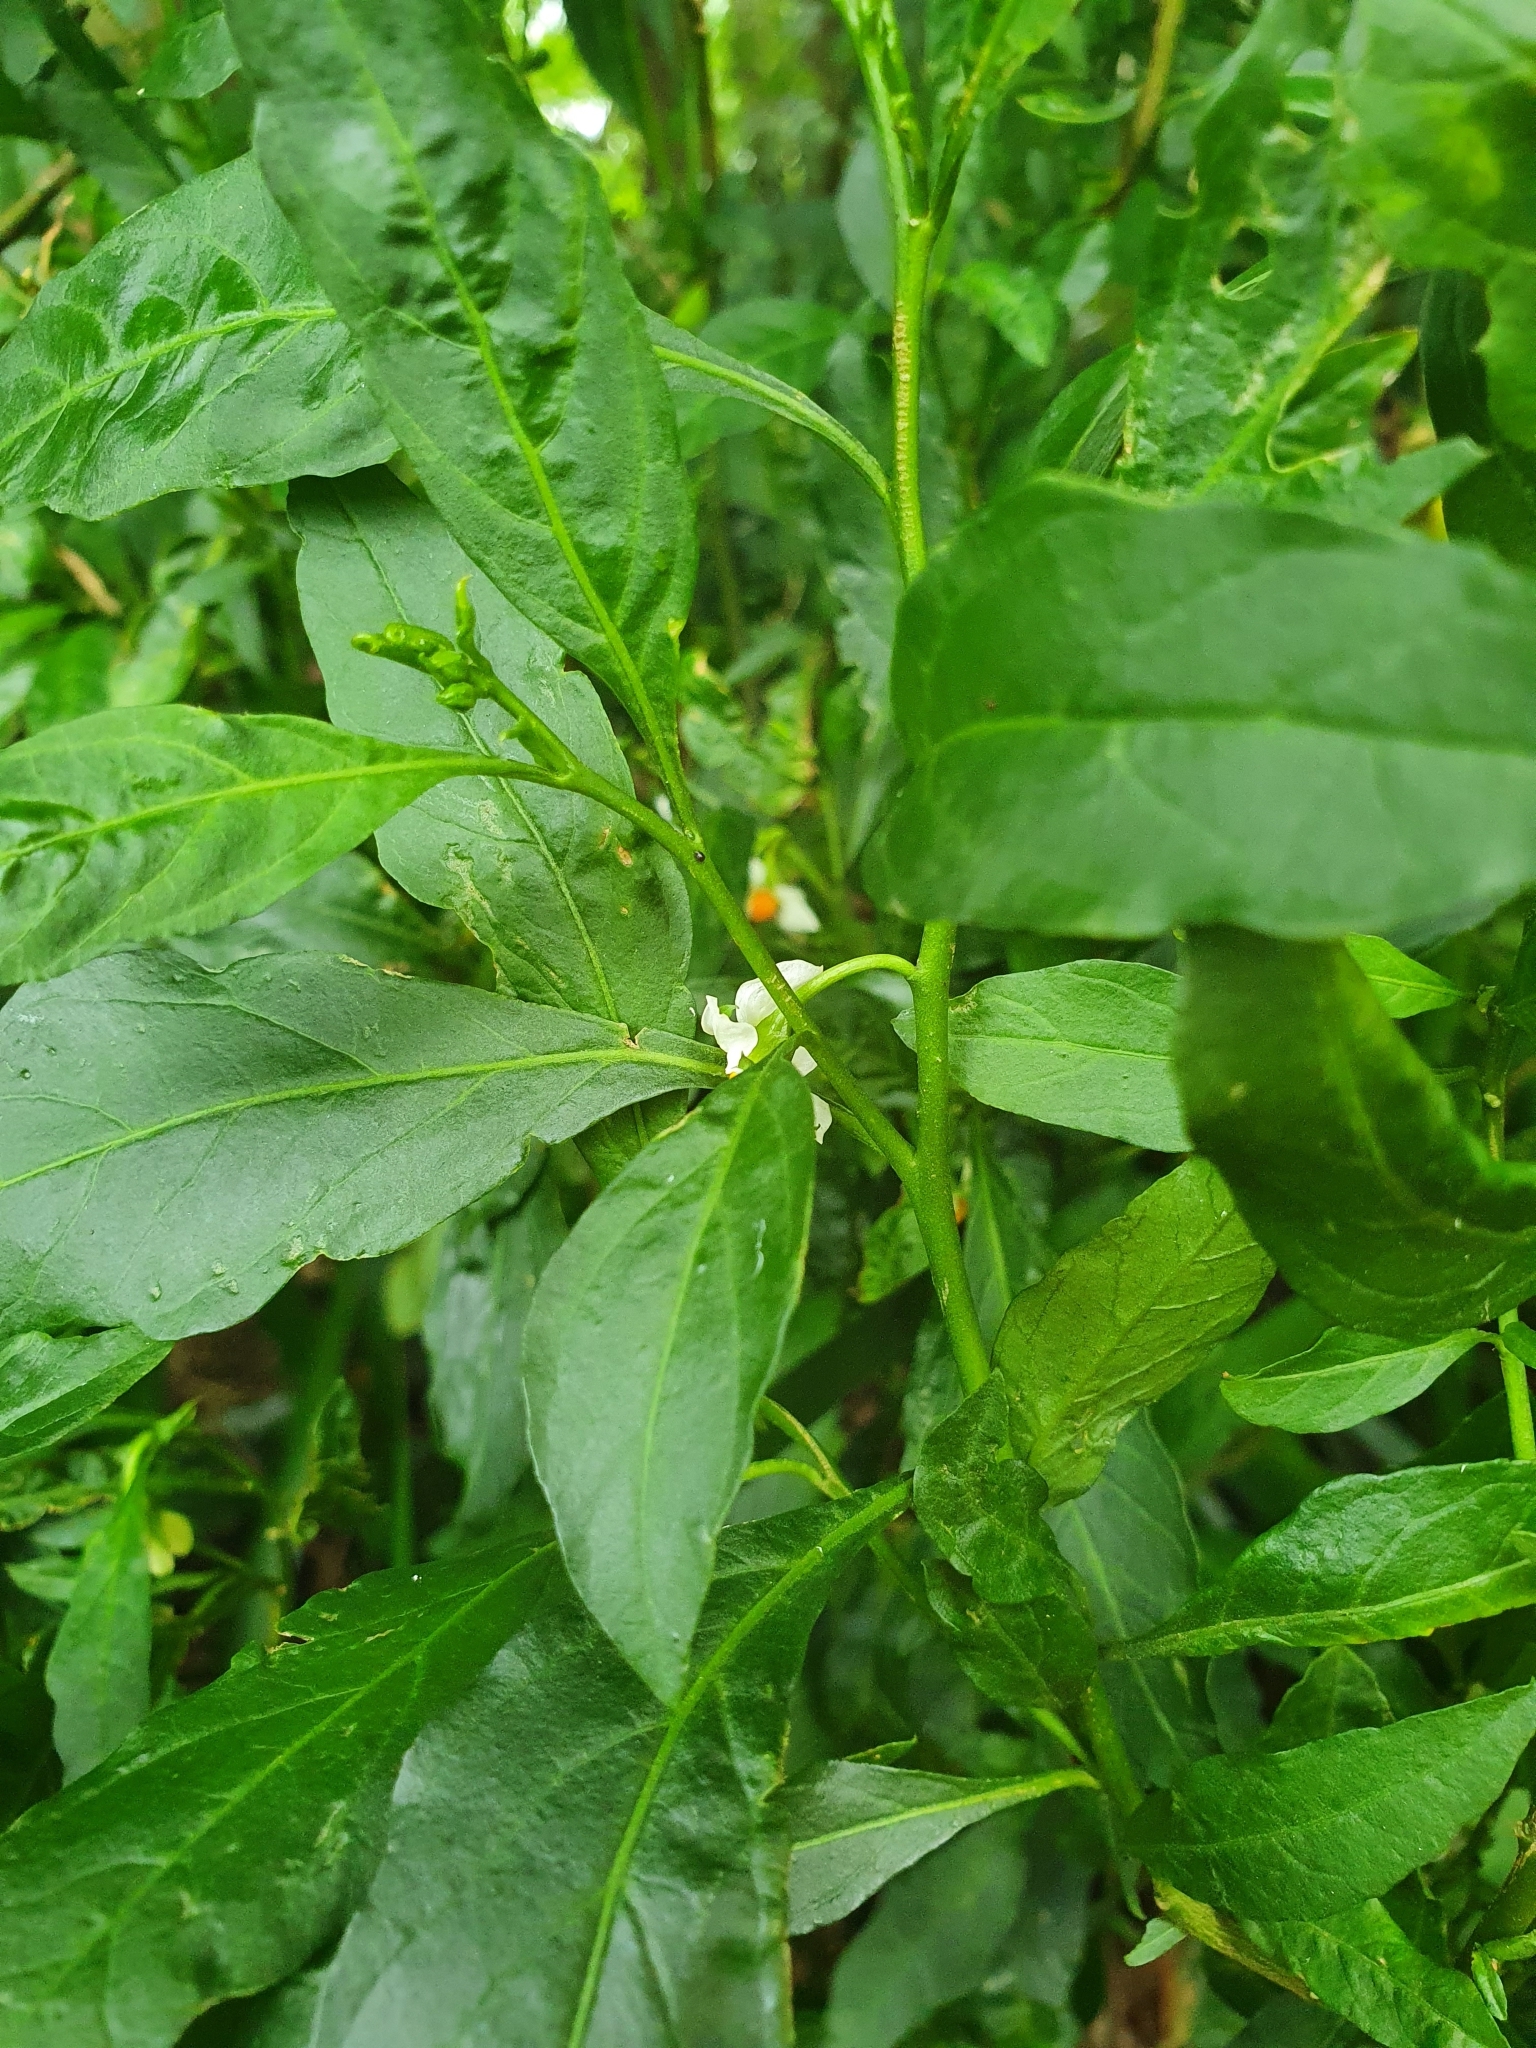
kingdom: Plantae
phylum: Tracheophyta
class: Magnoliopsida
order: Solanales
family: Solanaceae
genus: Solanum
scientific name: Solanum pseudocapsicum
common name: Jerusalem cherry
